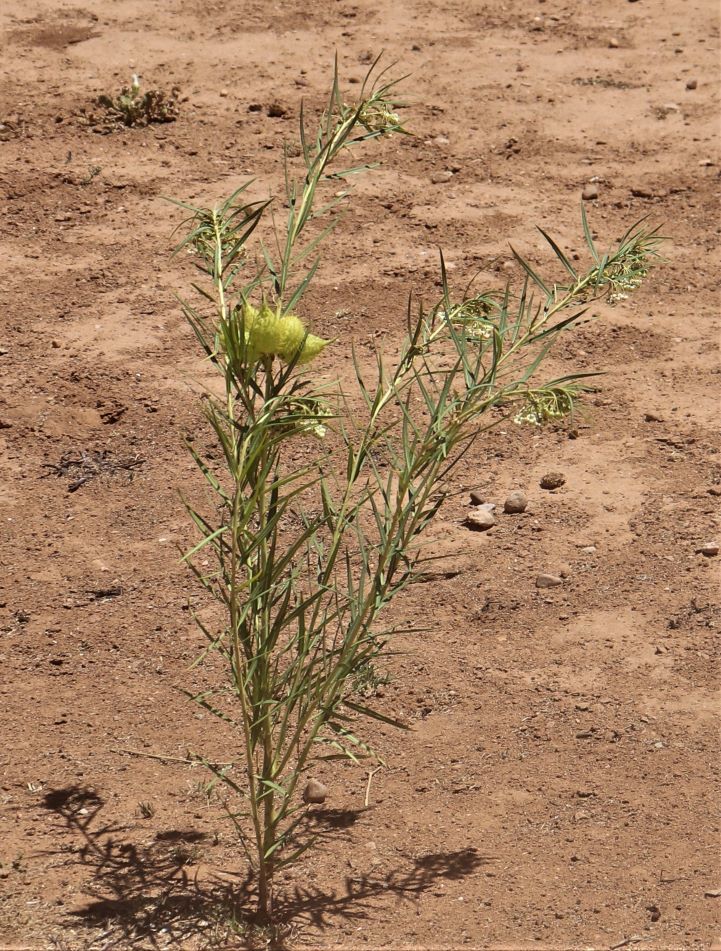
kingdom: Plantae
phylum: Tracheophyta
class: Magnoliopsida
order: Gentianales
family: Apocynaceae
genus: Gomphocarpus
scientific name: Gomphocarpus fruticosus
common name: Milkweed
